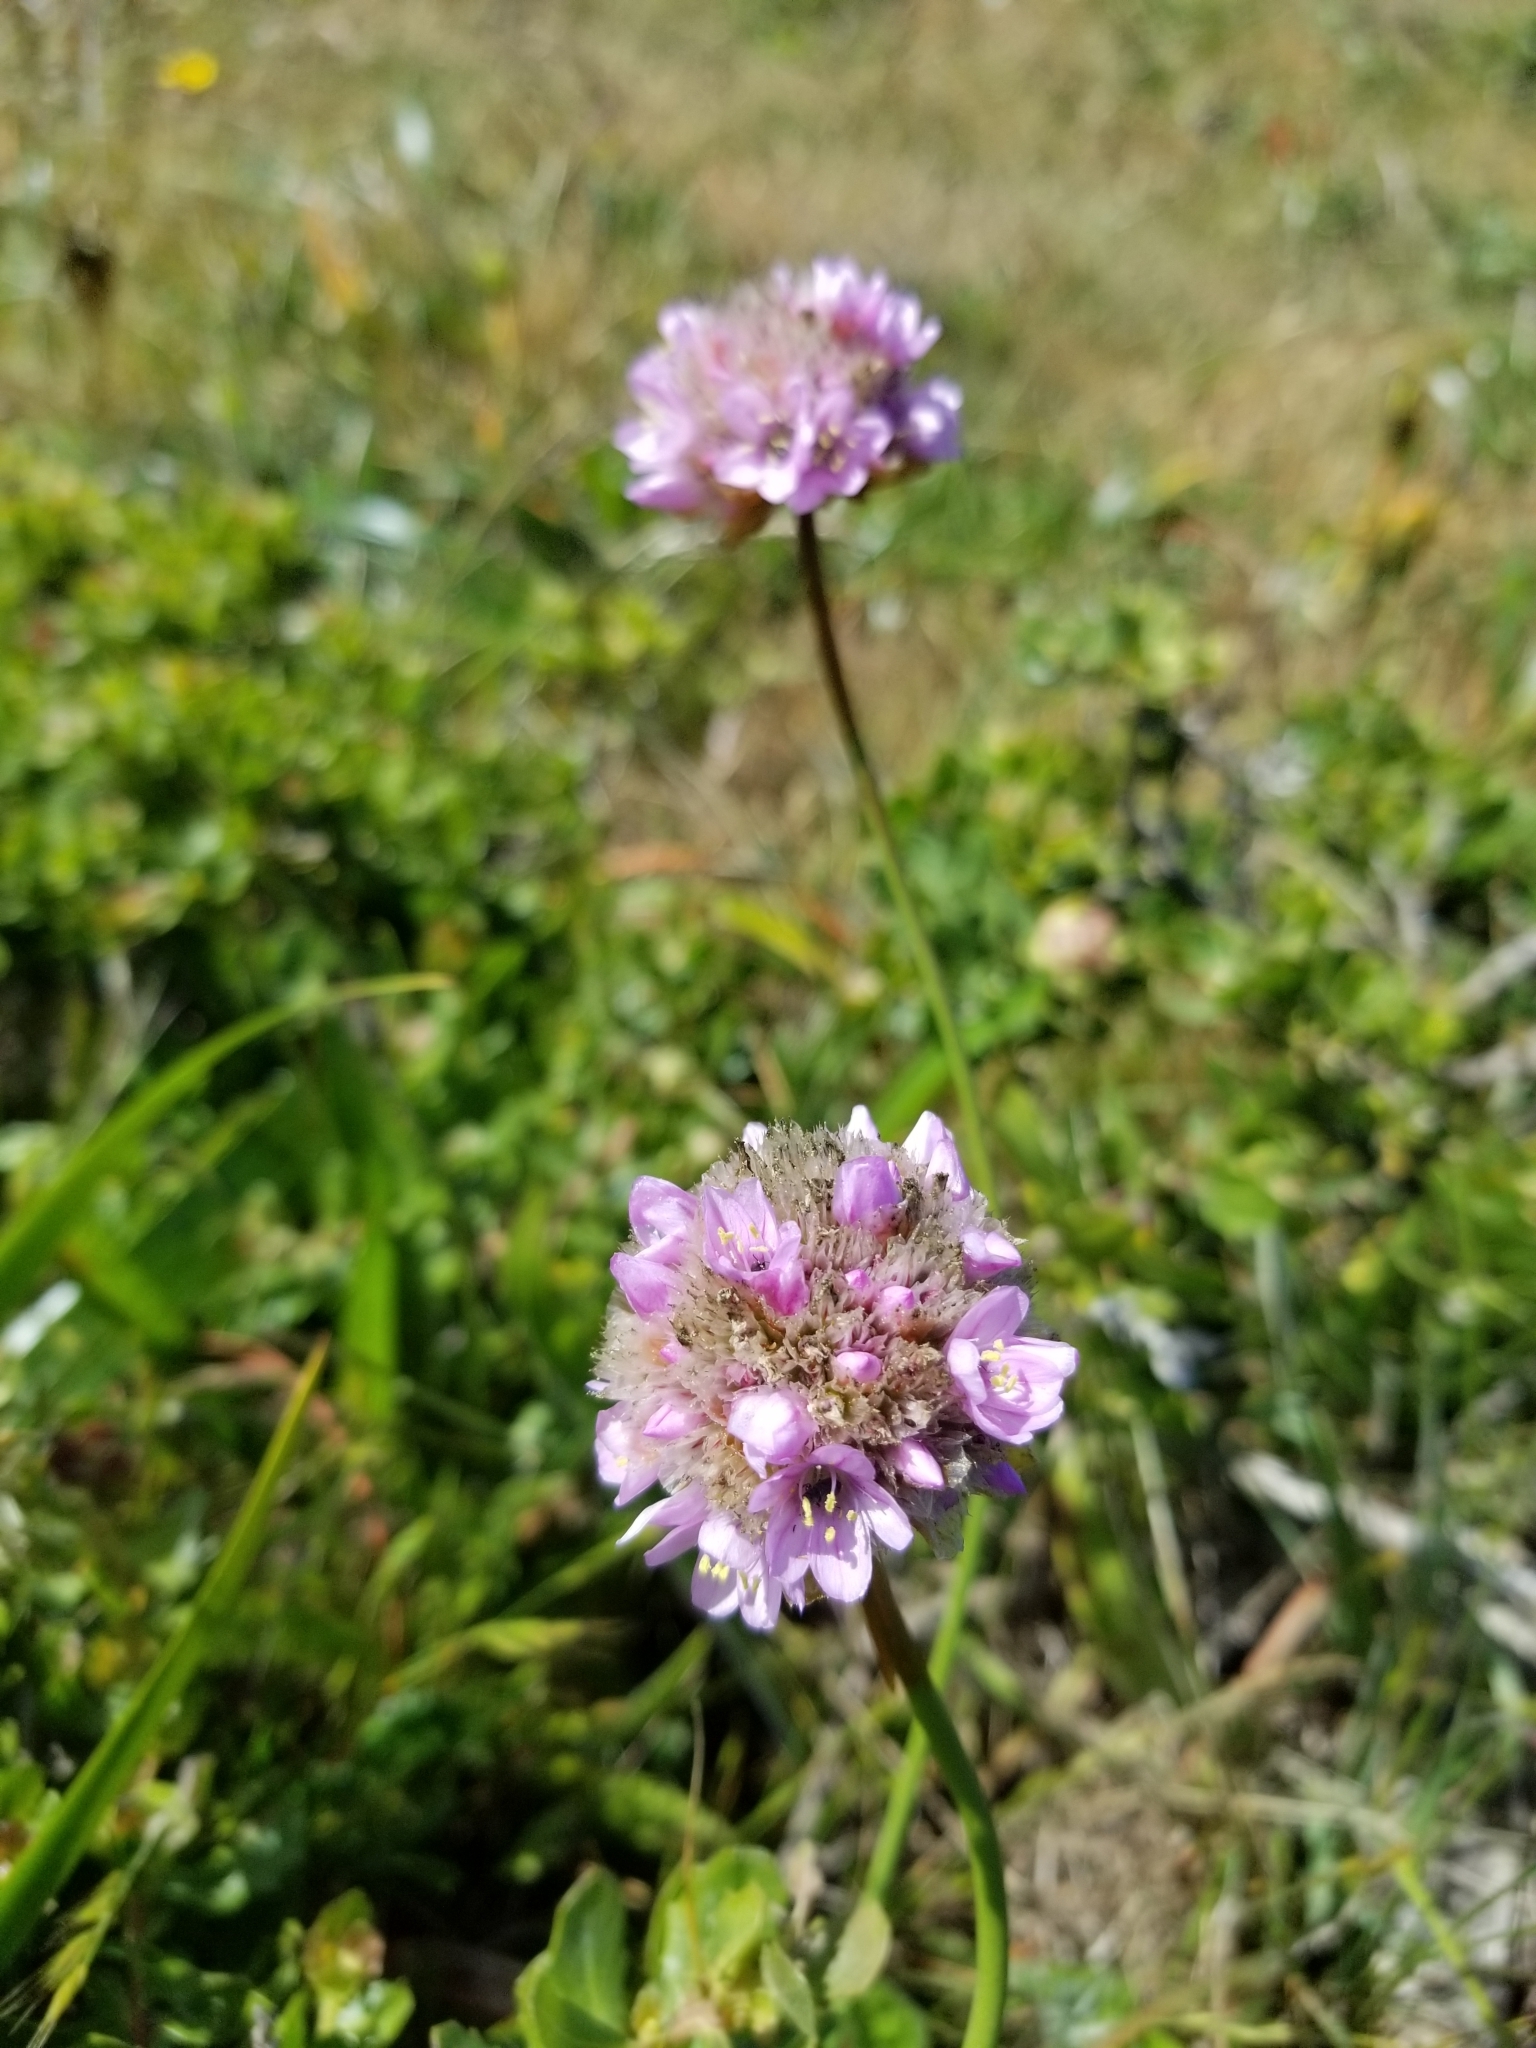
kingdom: Plantae
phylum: Tracheophyta
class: Magnoliopsida
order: Caryophyllales
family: Plumbaginaceae
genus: Armeria
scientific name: Armeria maritima
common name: Thrift
